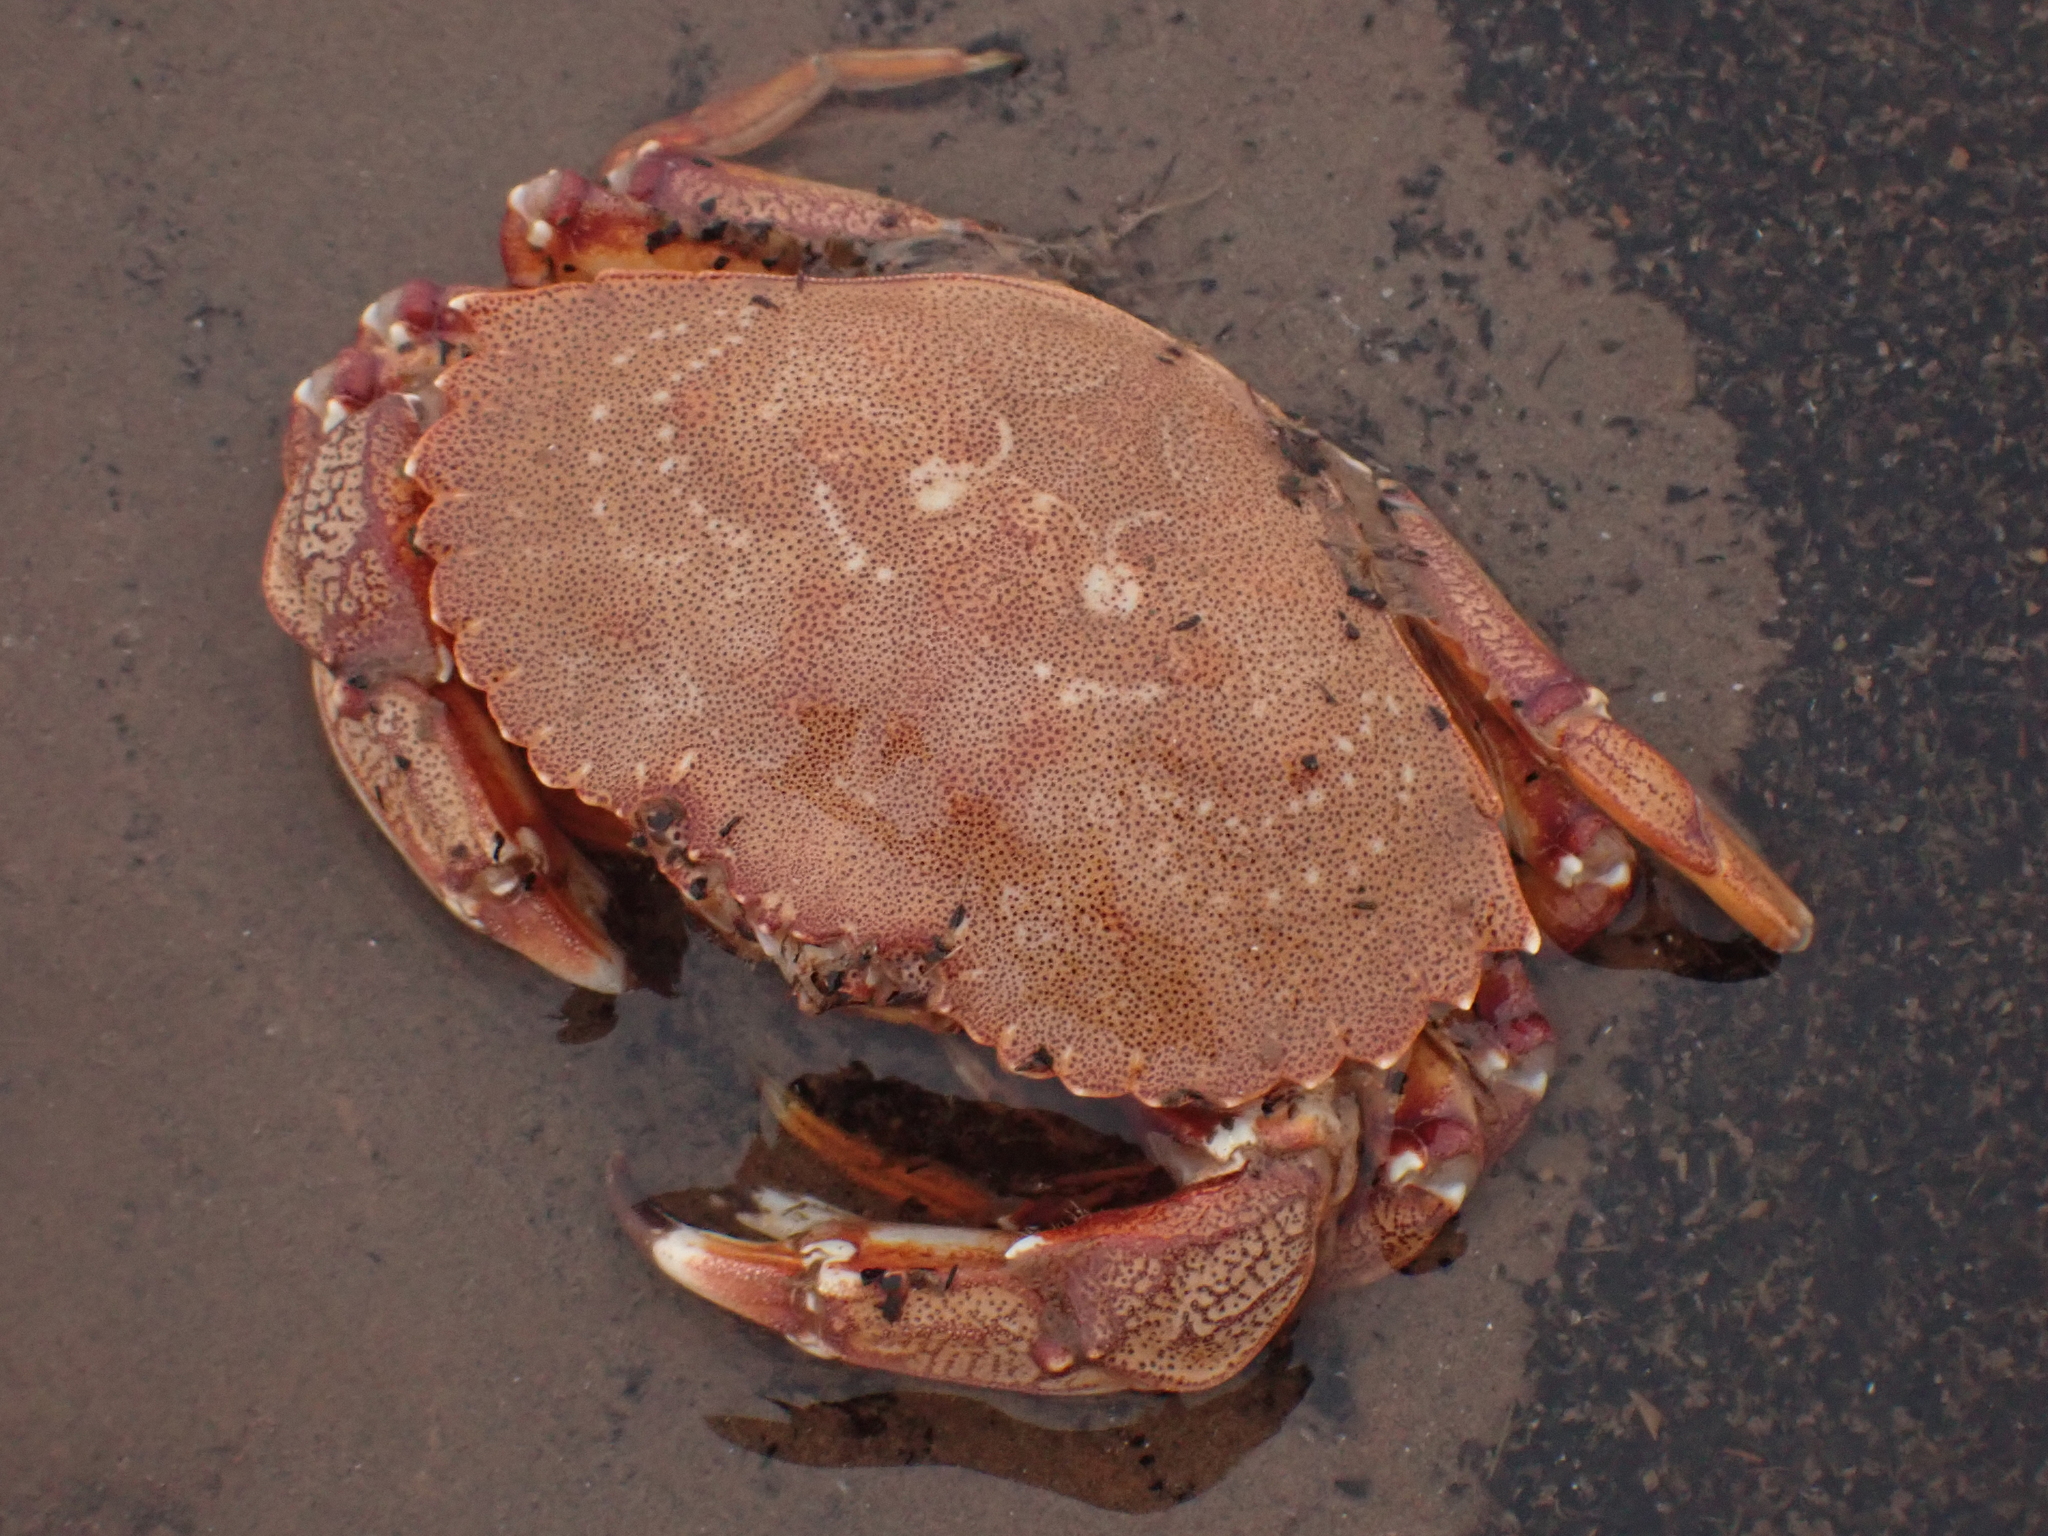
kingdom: Animalia
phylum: Arthropoda
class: Malacostraca
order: Decapoda
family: Cancridae
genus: Cancer
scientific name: Cancer irroratus
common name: Atlantic rock crab
